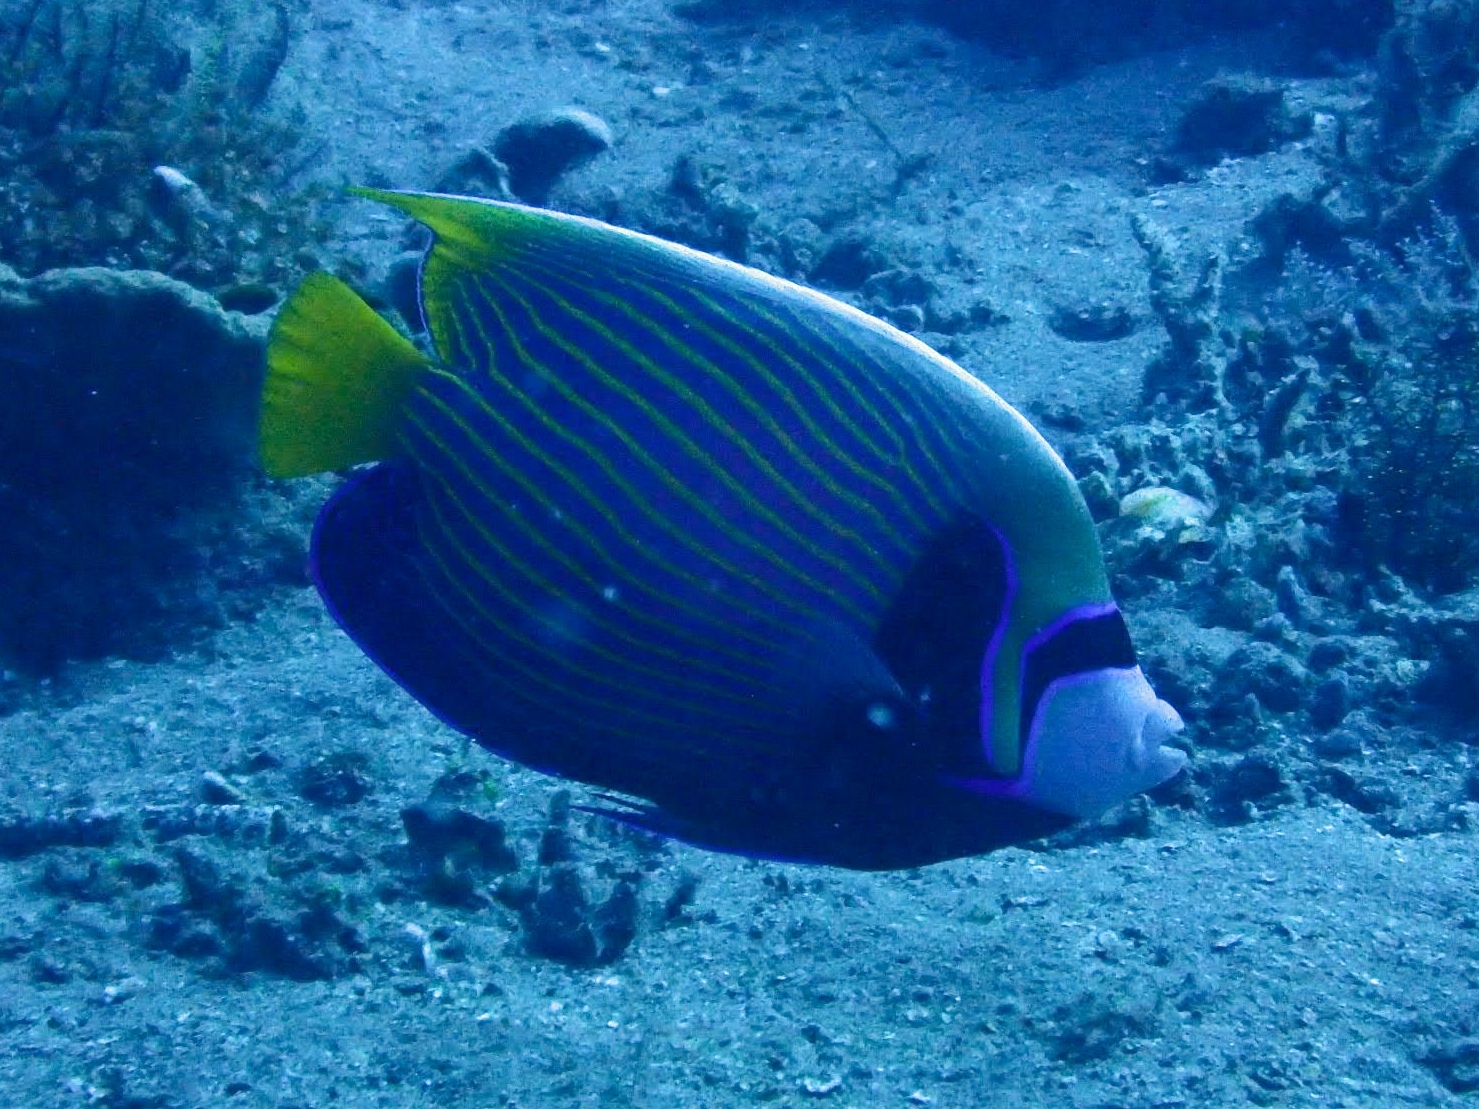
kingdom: Animalia
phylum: Chordata
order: Perciformes
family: Pomacanthidae
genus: Pomacanthus
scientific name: Pomacanthus imperator
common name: Emperor angelfish
